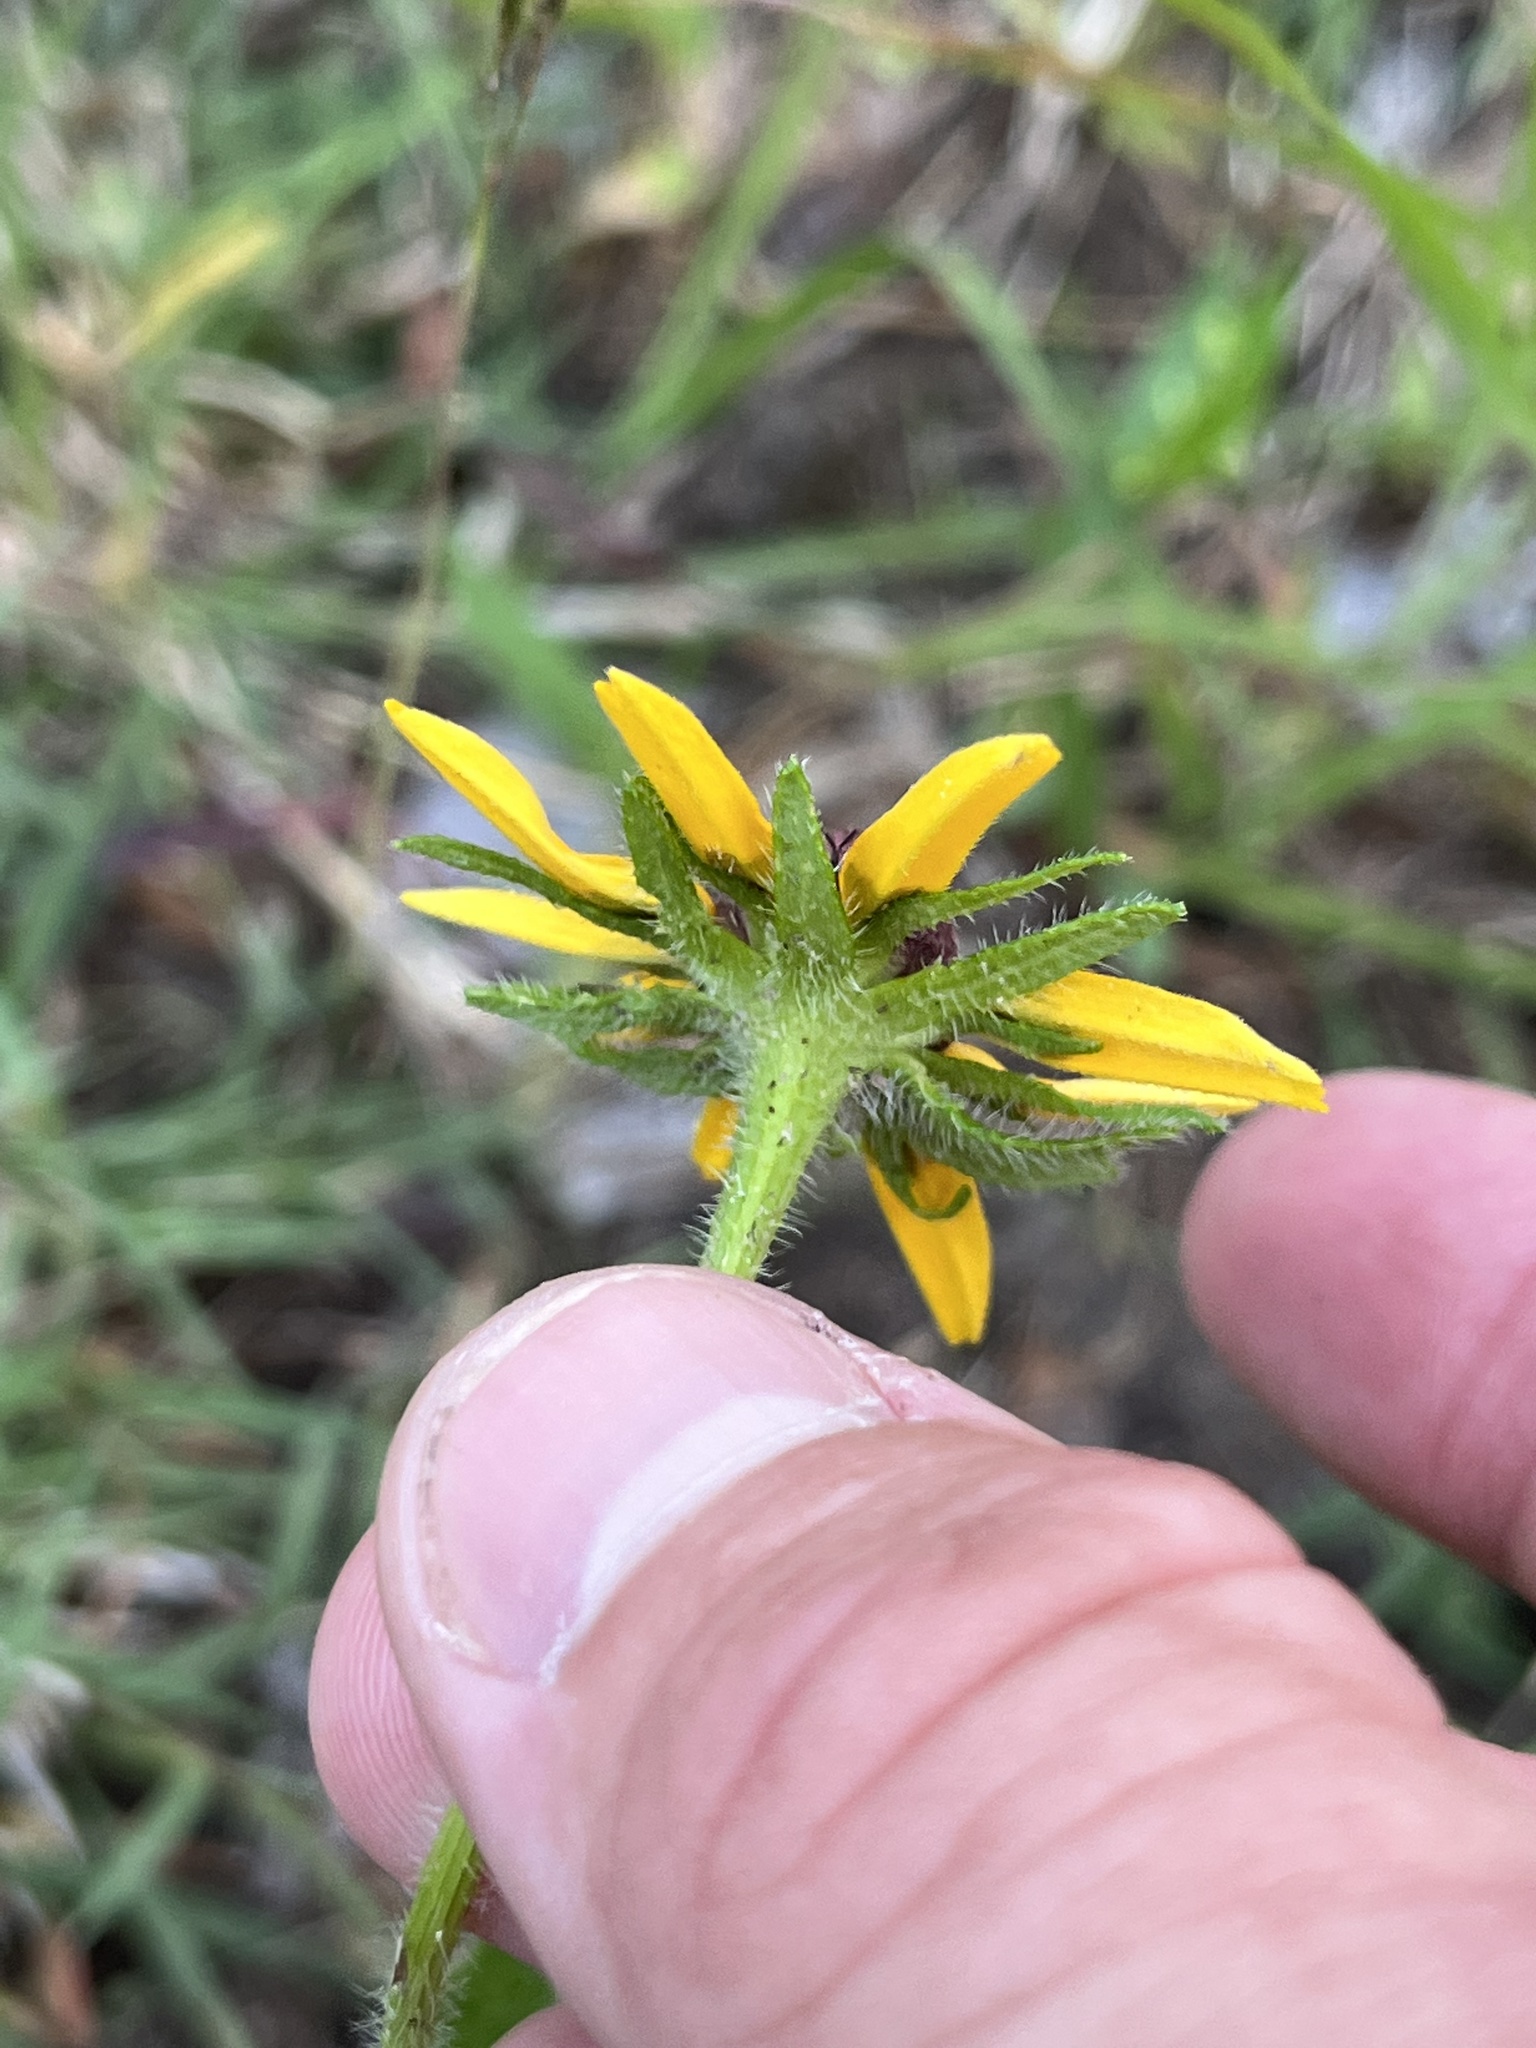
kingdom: Plantae
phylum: Tracheophyta
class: Magnoliopsida
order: Asterales
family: Asteraceae
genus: Rudbeckia
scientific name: Rudbeckia hirta
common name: Black-eyed-susan
